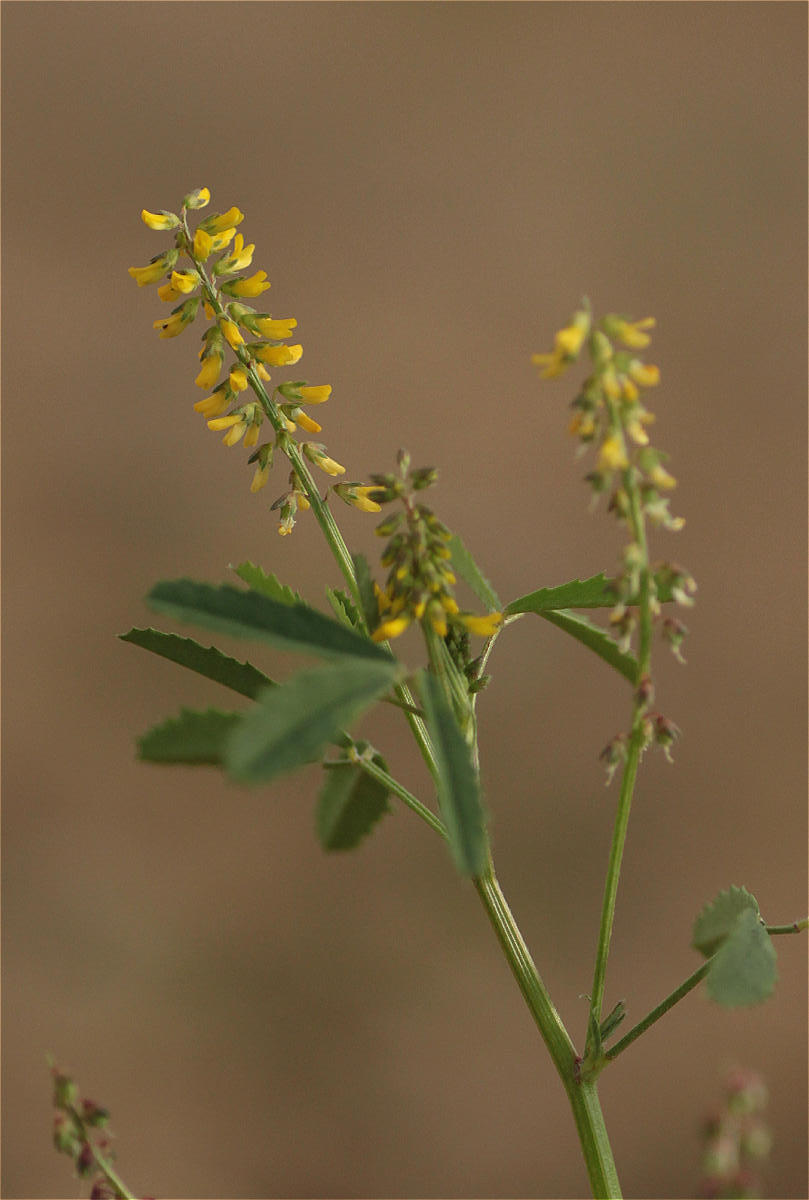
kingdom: Plantae
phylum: Tracheophyta
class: Magnoliopsida
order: Fabales
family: Fabaceae
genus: Melilotus
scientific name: Melilotus indicus
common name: Small melilot
